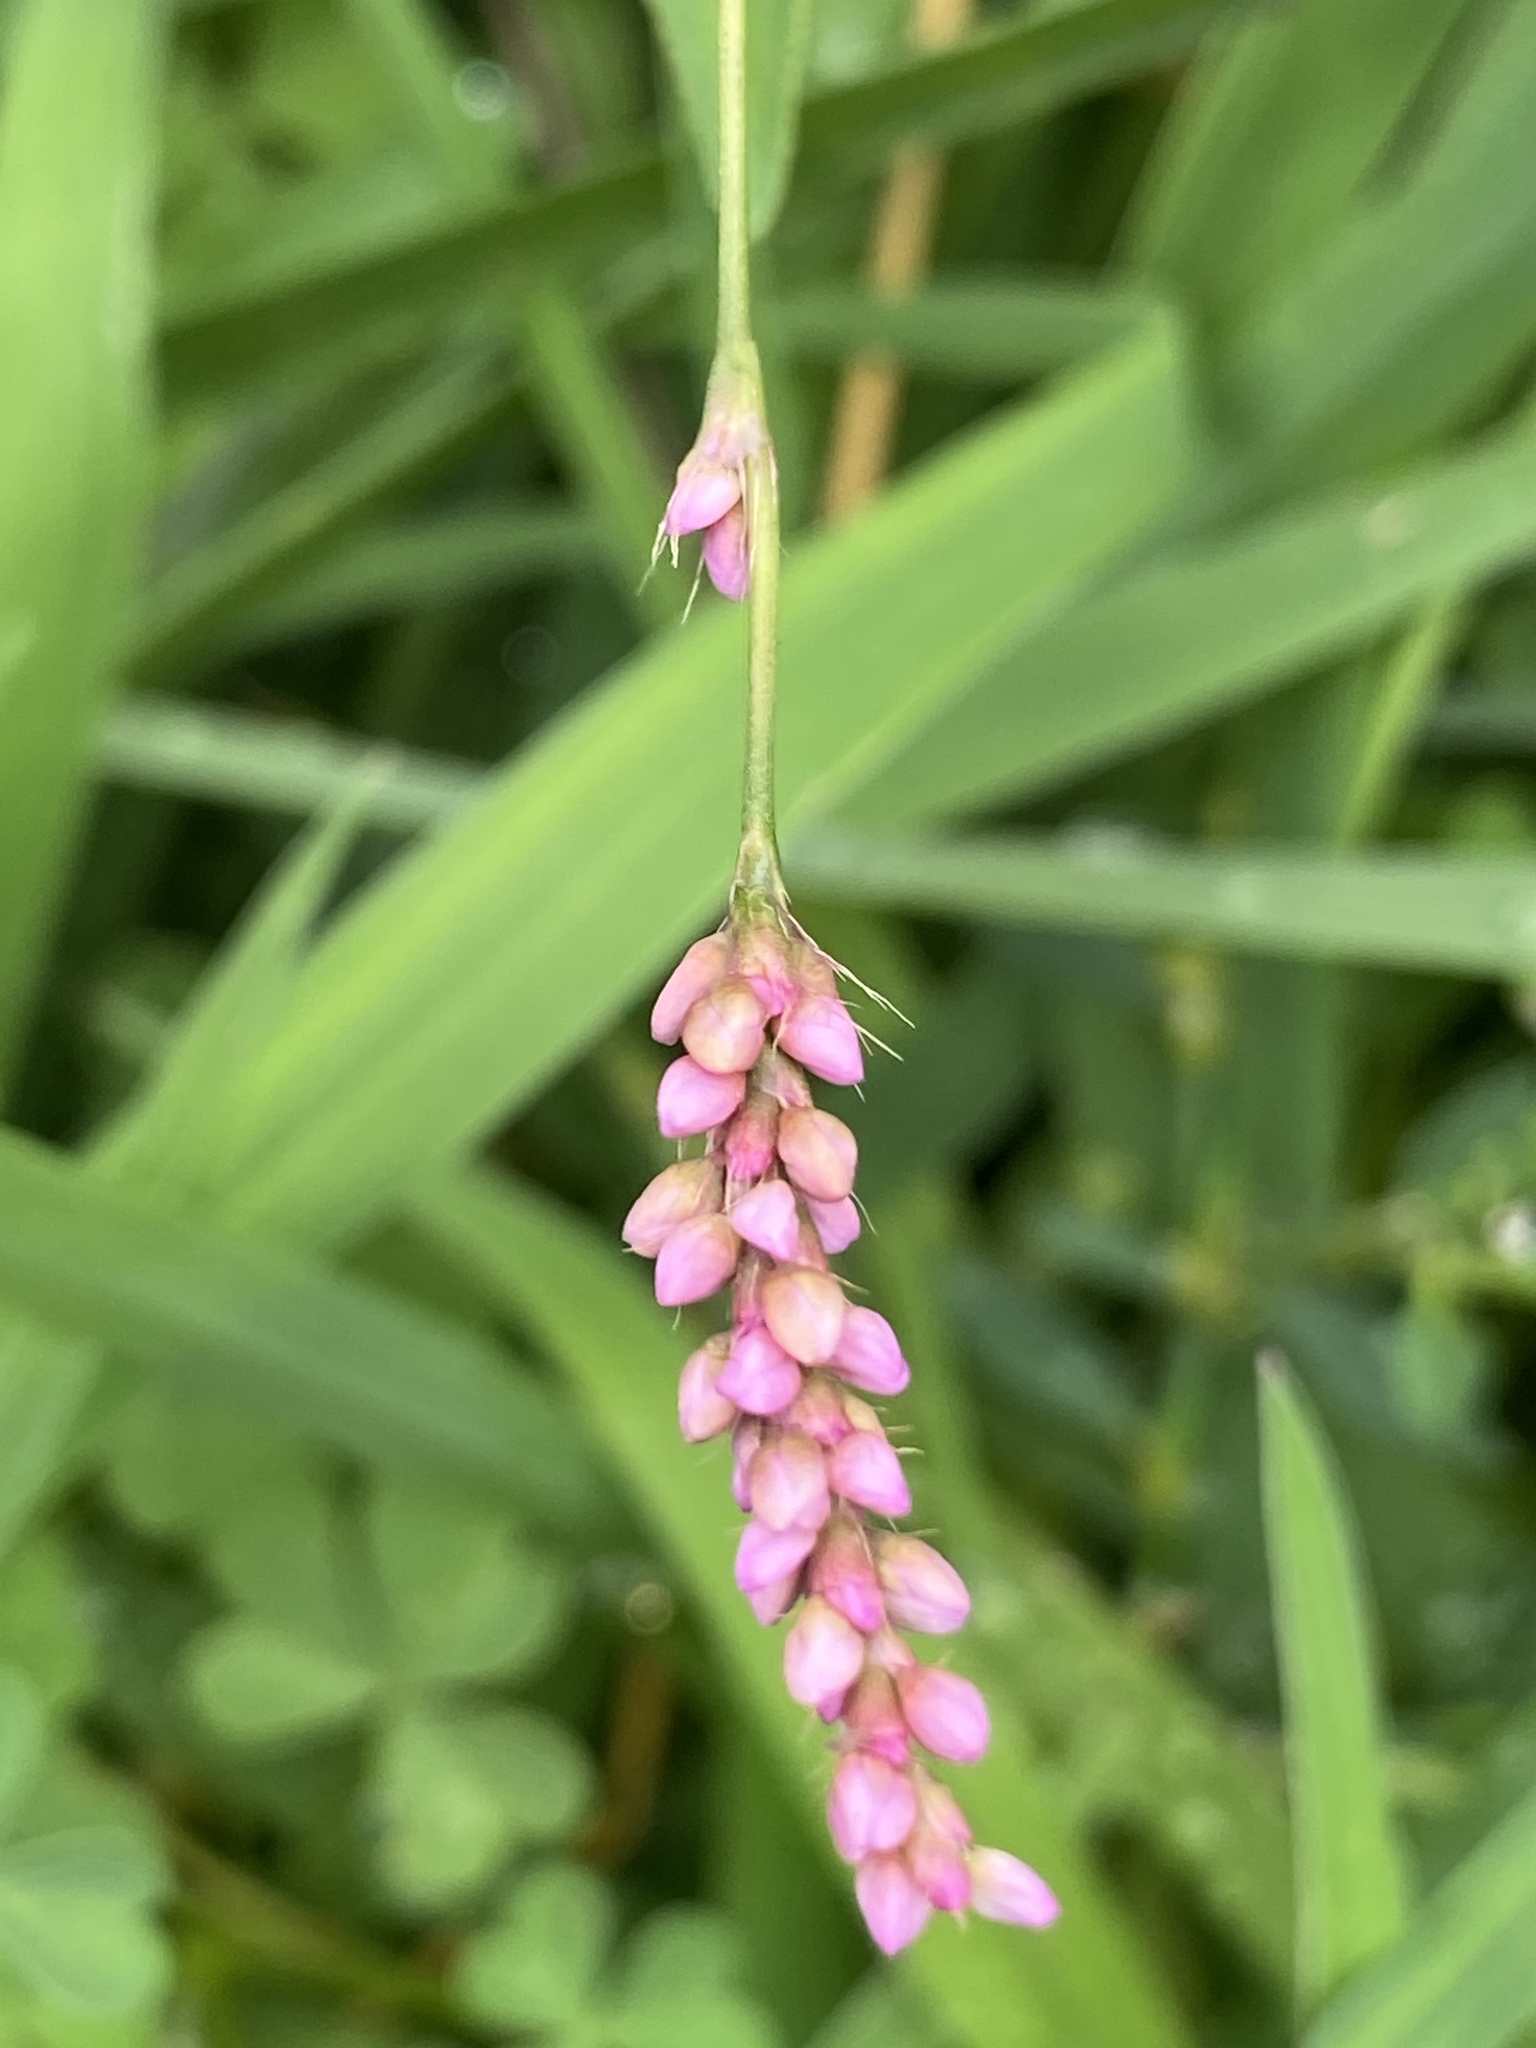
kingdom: Plantae
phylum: Tracheophyta
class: Magnoliopsida
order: Caryophyllales
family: Polygonaceae
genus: Persicaria
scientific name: Persicaria longiseta
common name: Bristly lady's-thumb
